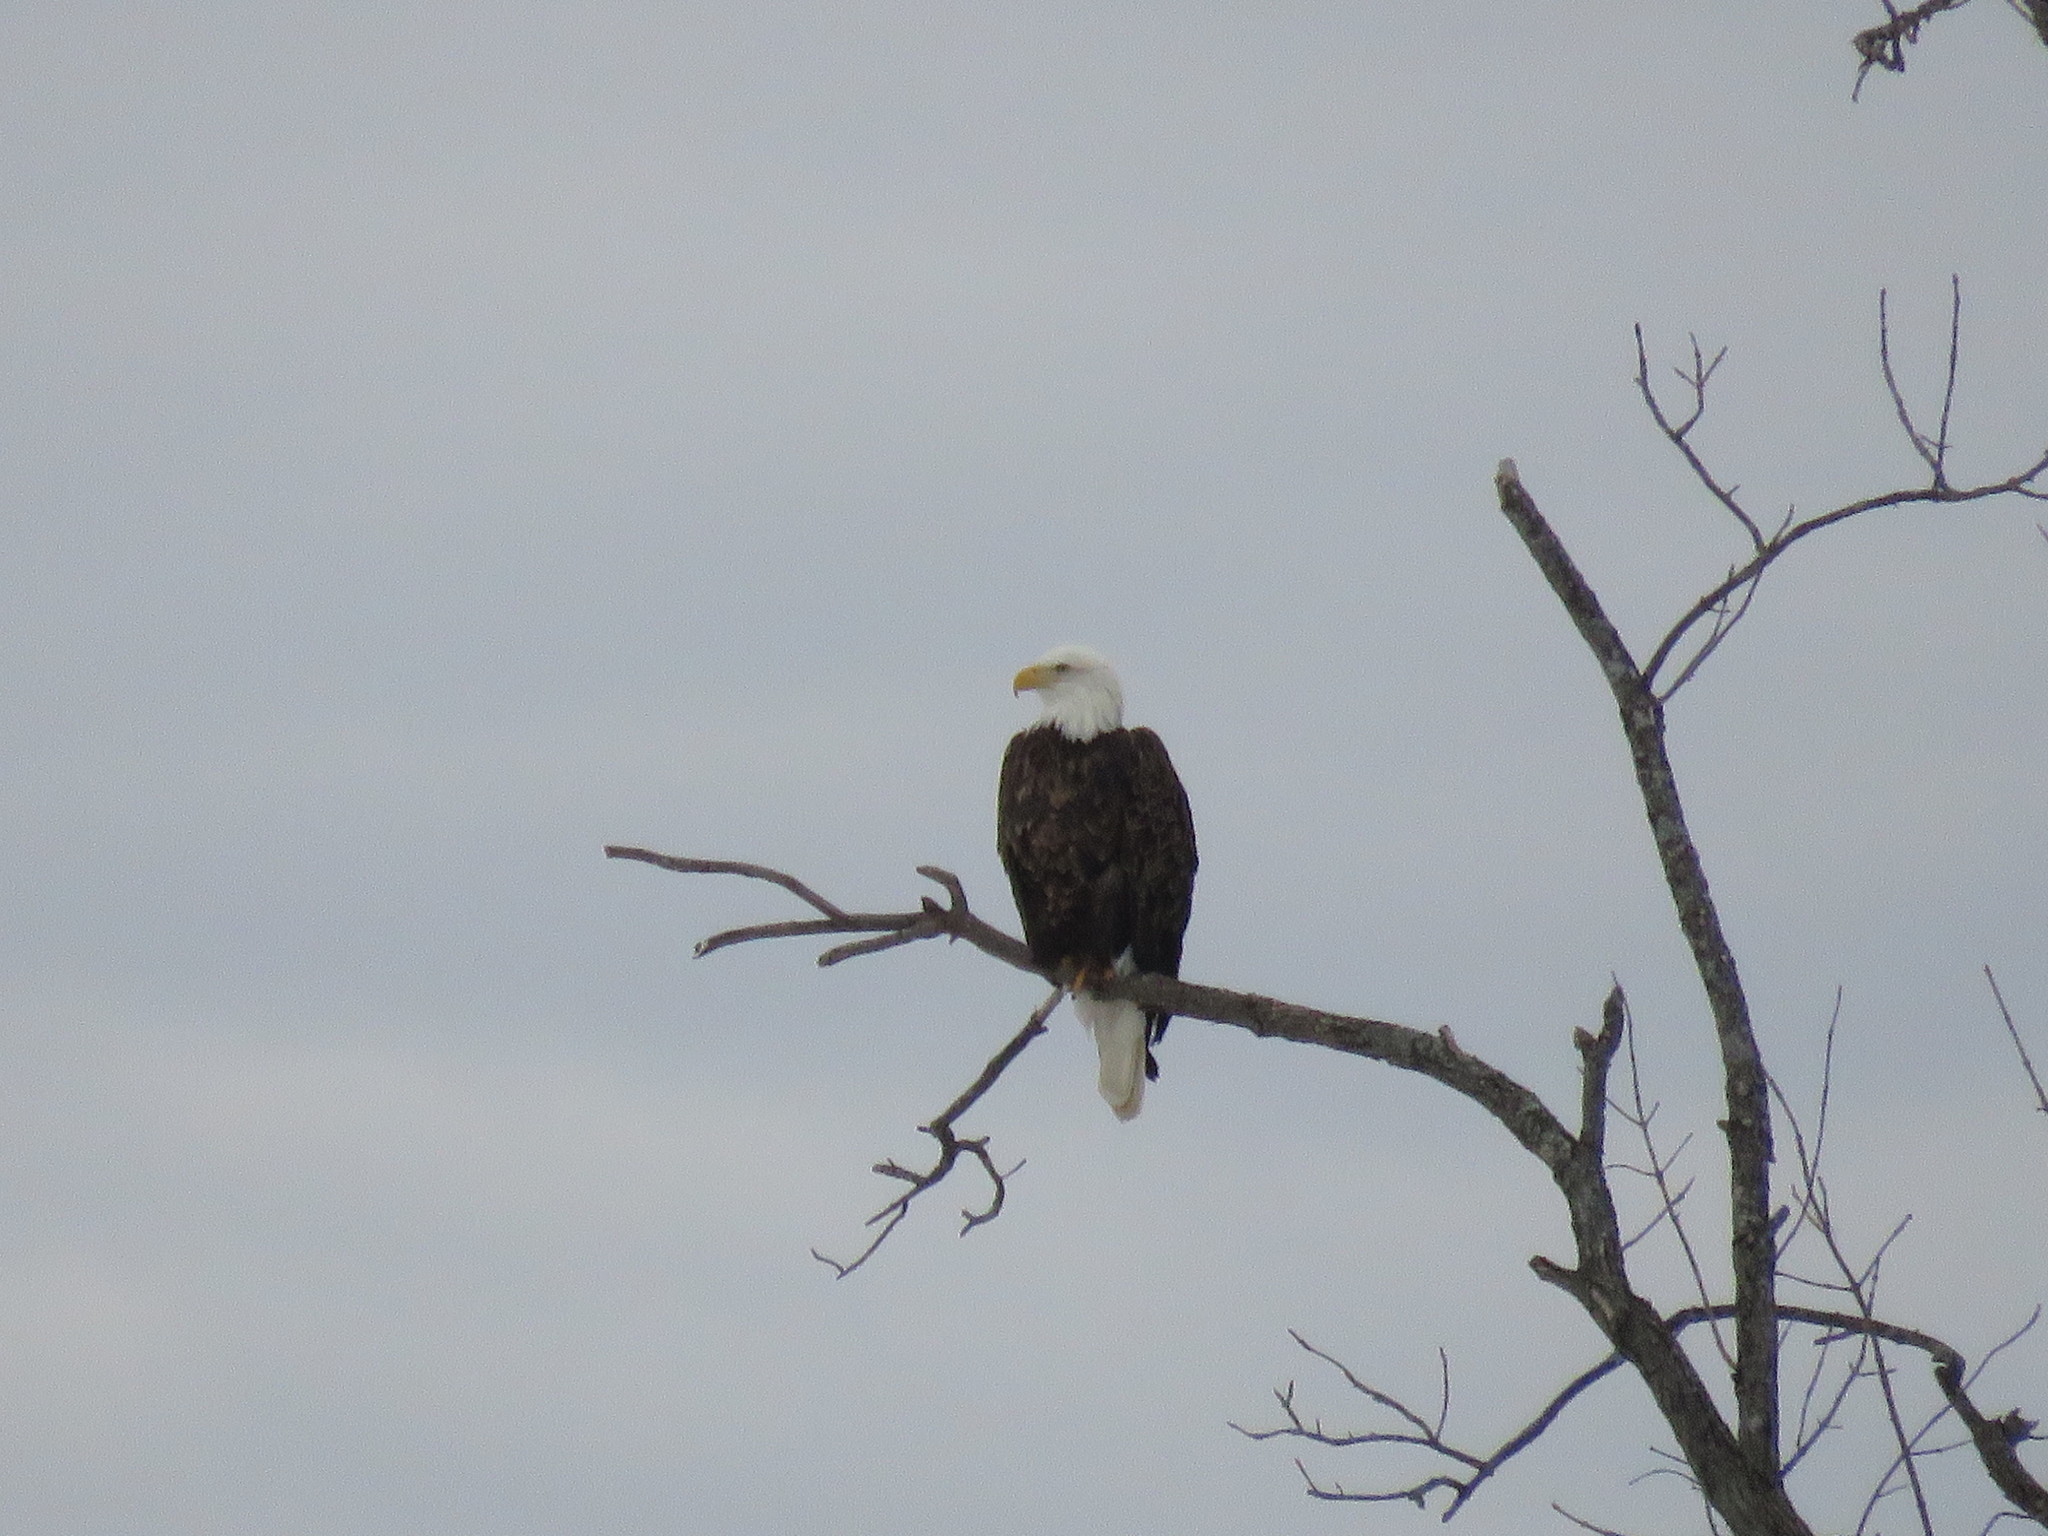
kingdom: Animalia
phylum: Chordata
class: Aves
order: Accipitriformes
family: Accipitridae
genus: Haliaeetus
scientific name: Haliaeetus leucocephalus
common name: Bald eagle
